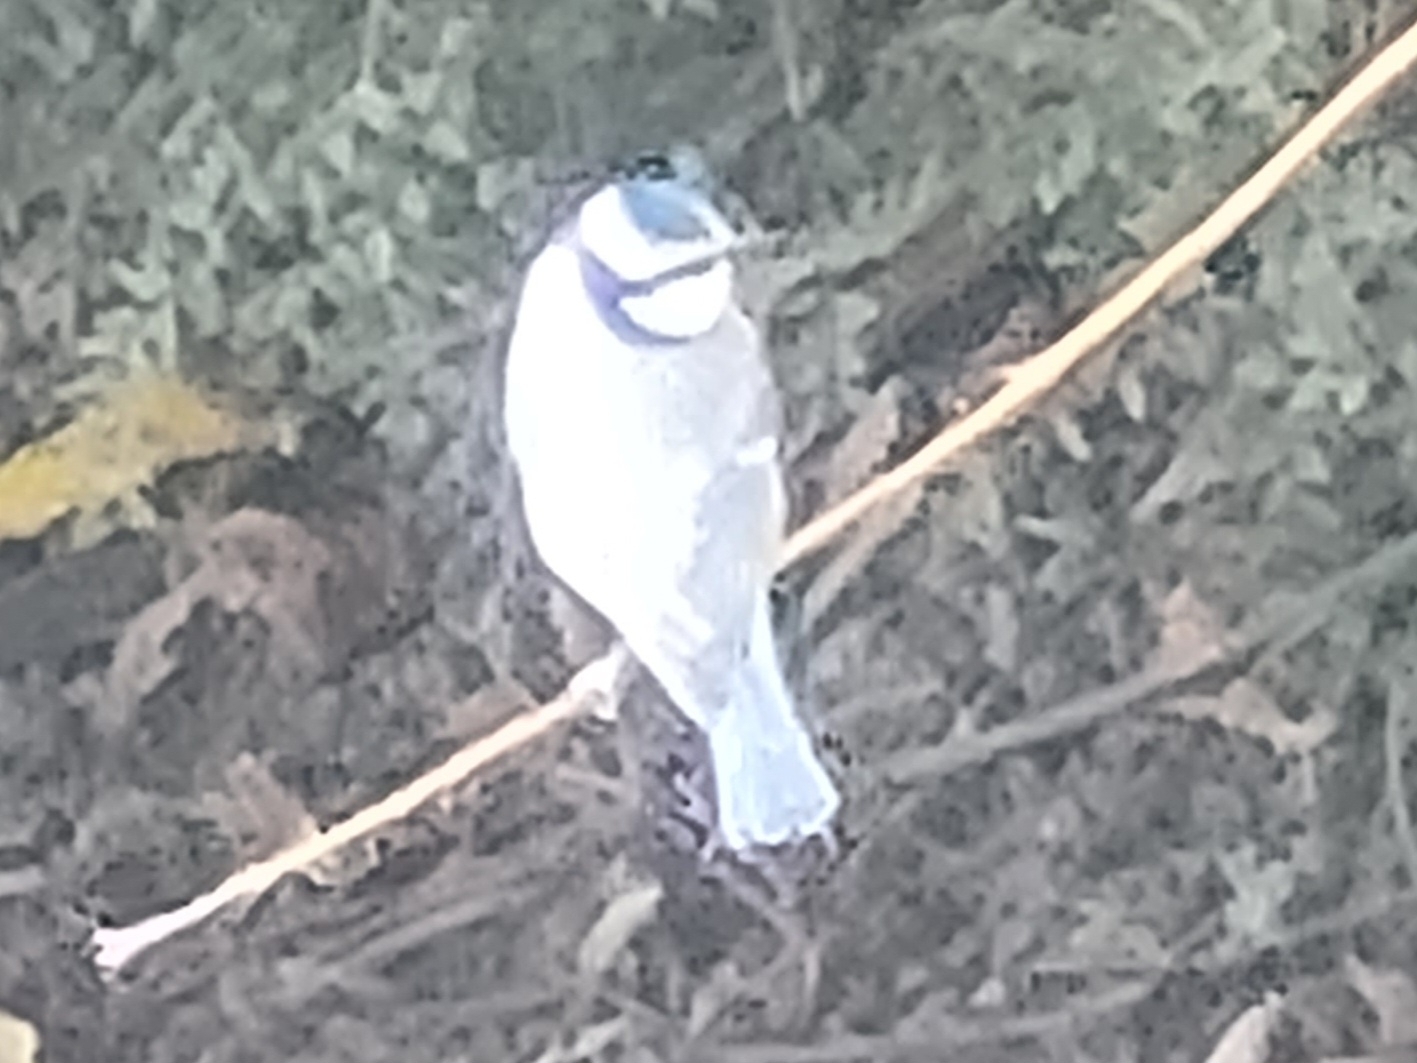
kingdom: Animalia
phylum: Chordata
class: Aves
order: Passeriformes
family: Paridae
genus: Cyanistes
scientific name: Cyanistes caeruleus
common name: Eurasian blue tit
